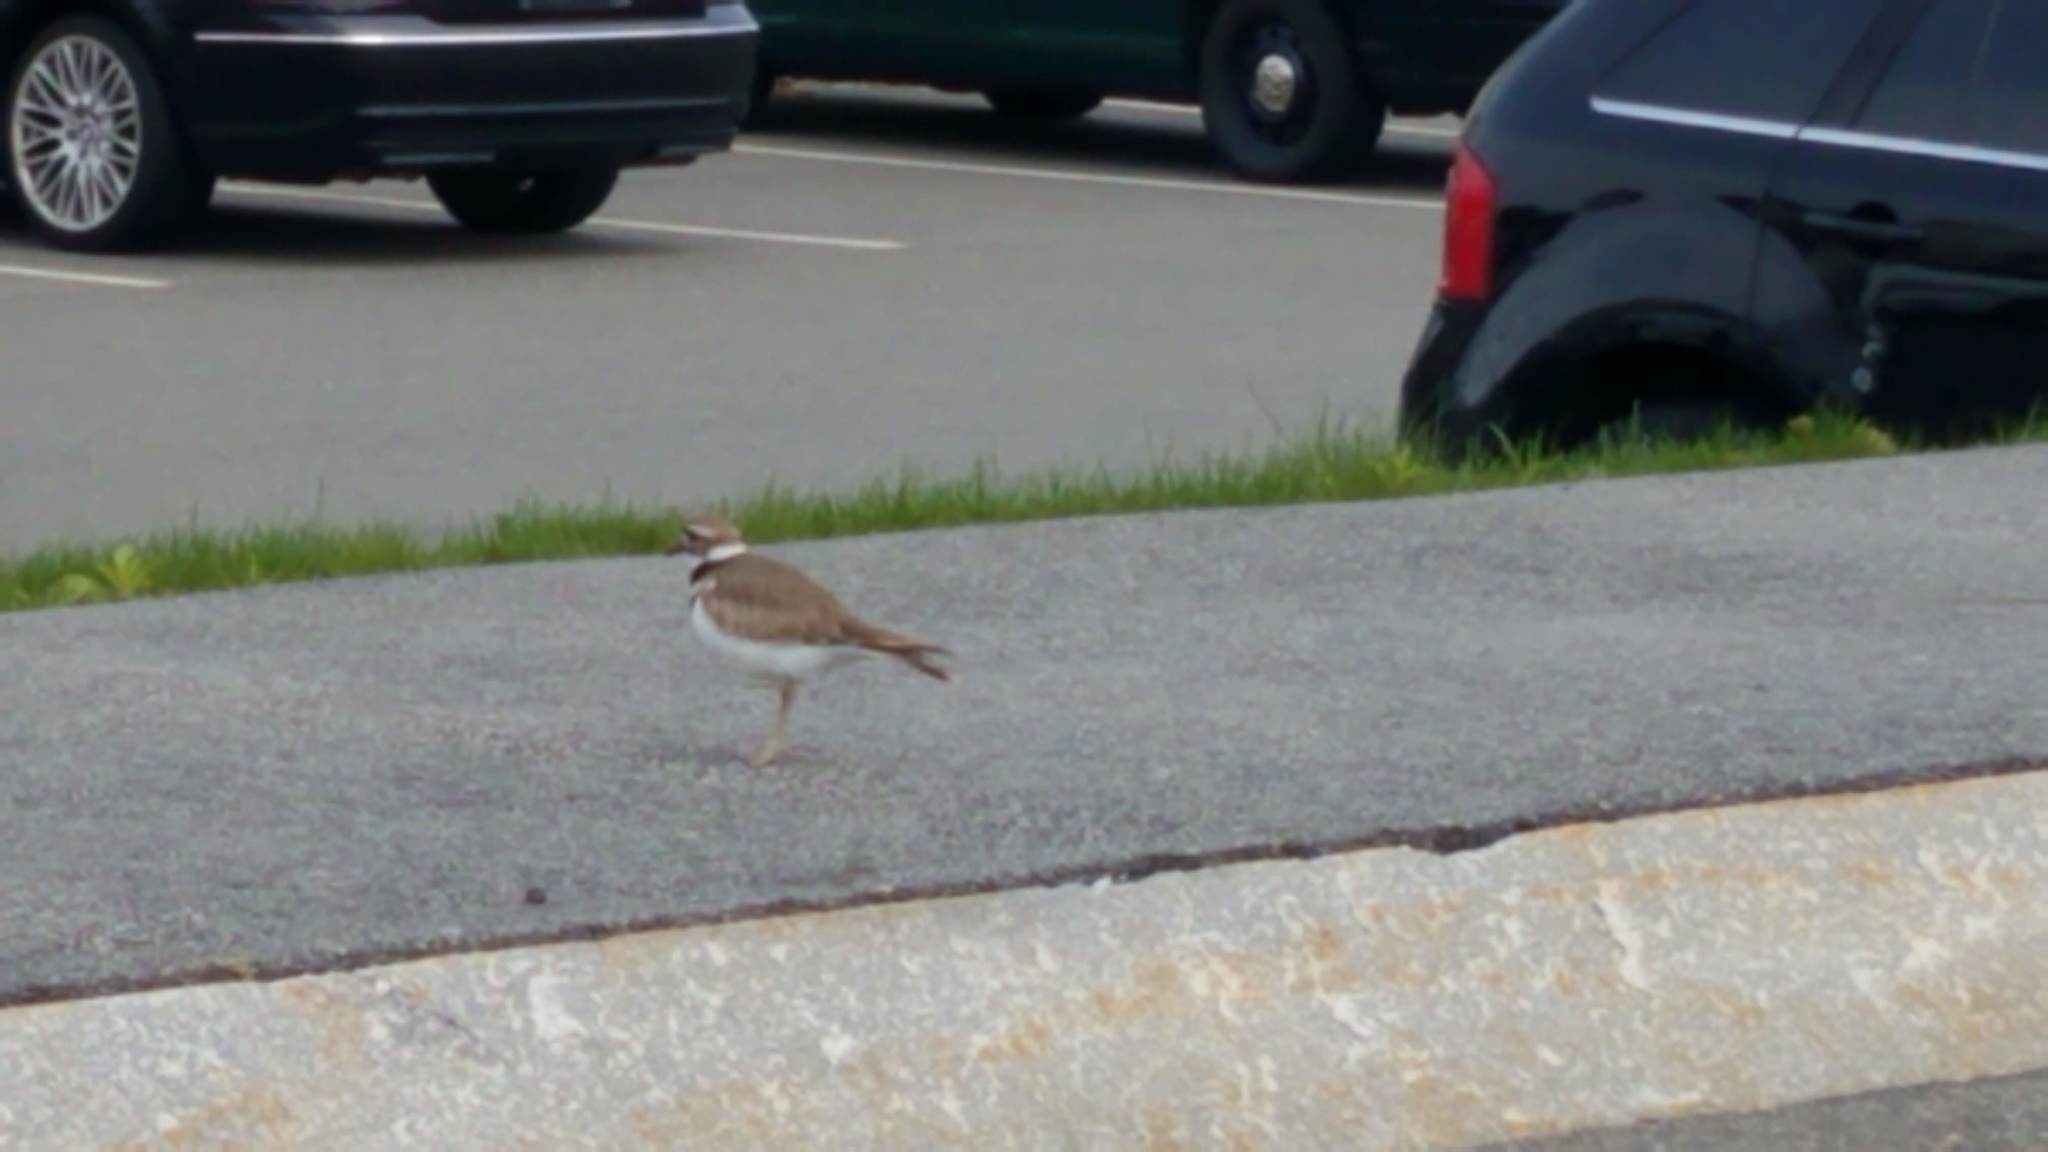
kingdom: Animalia
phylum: Chordata
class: Aves
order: Charadriiformes
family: Charadriidae
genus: Charadrius
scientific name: Charadrius vociferus
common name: Killdeer
